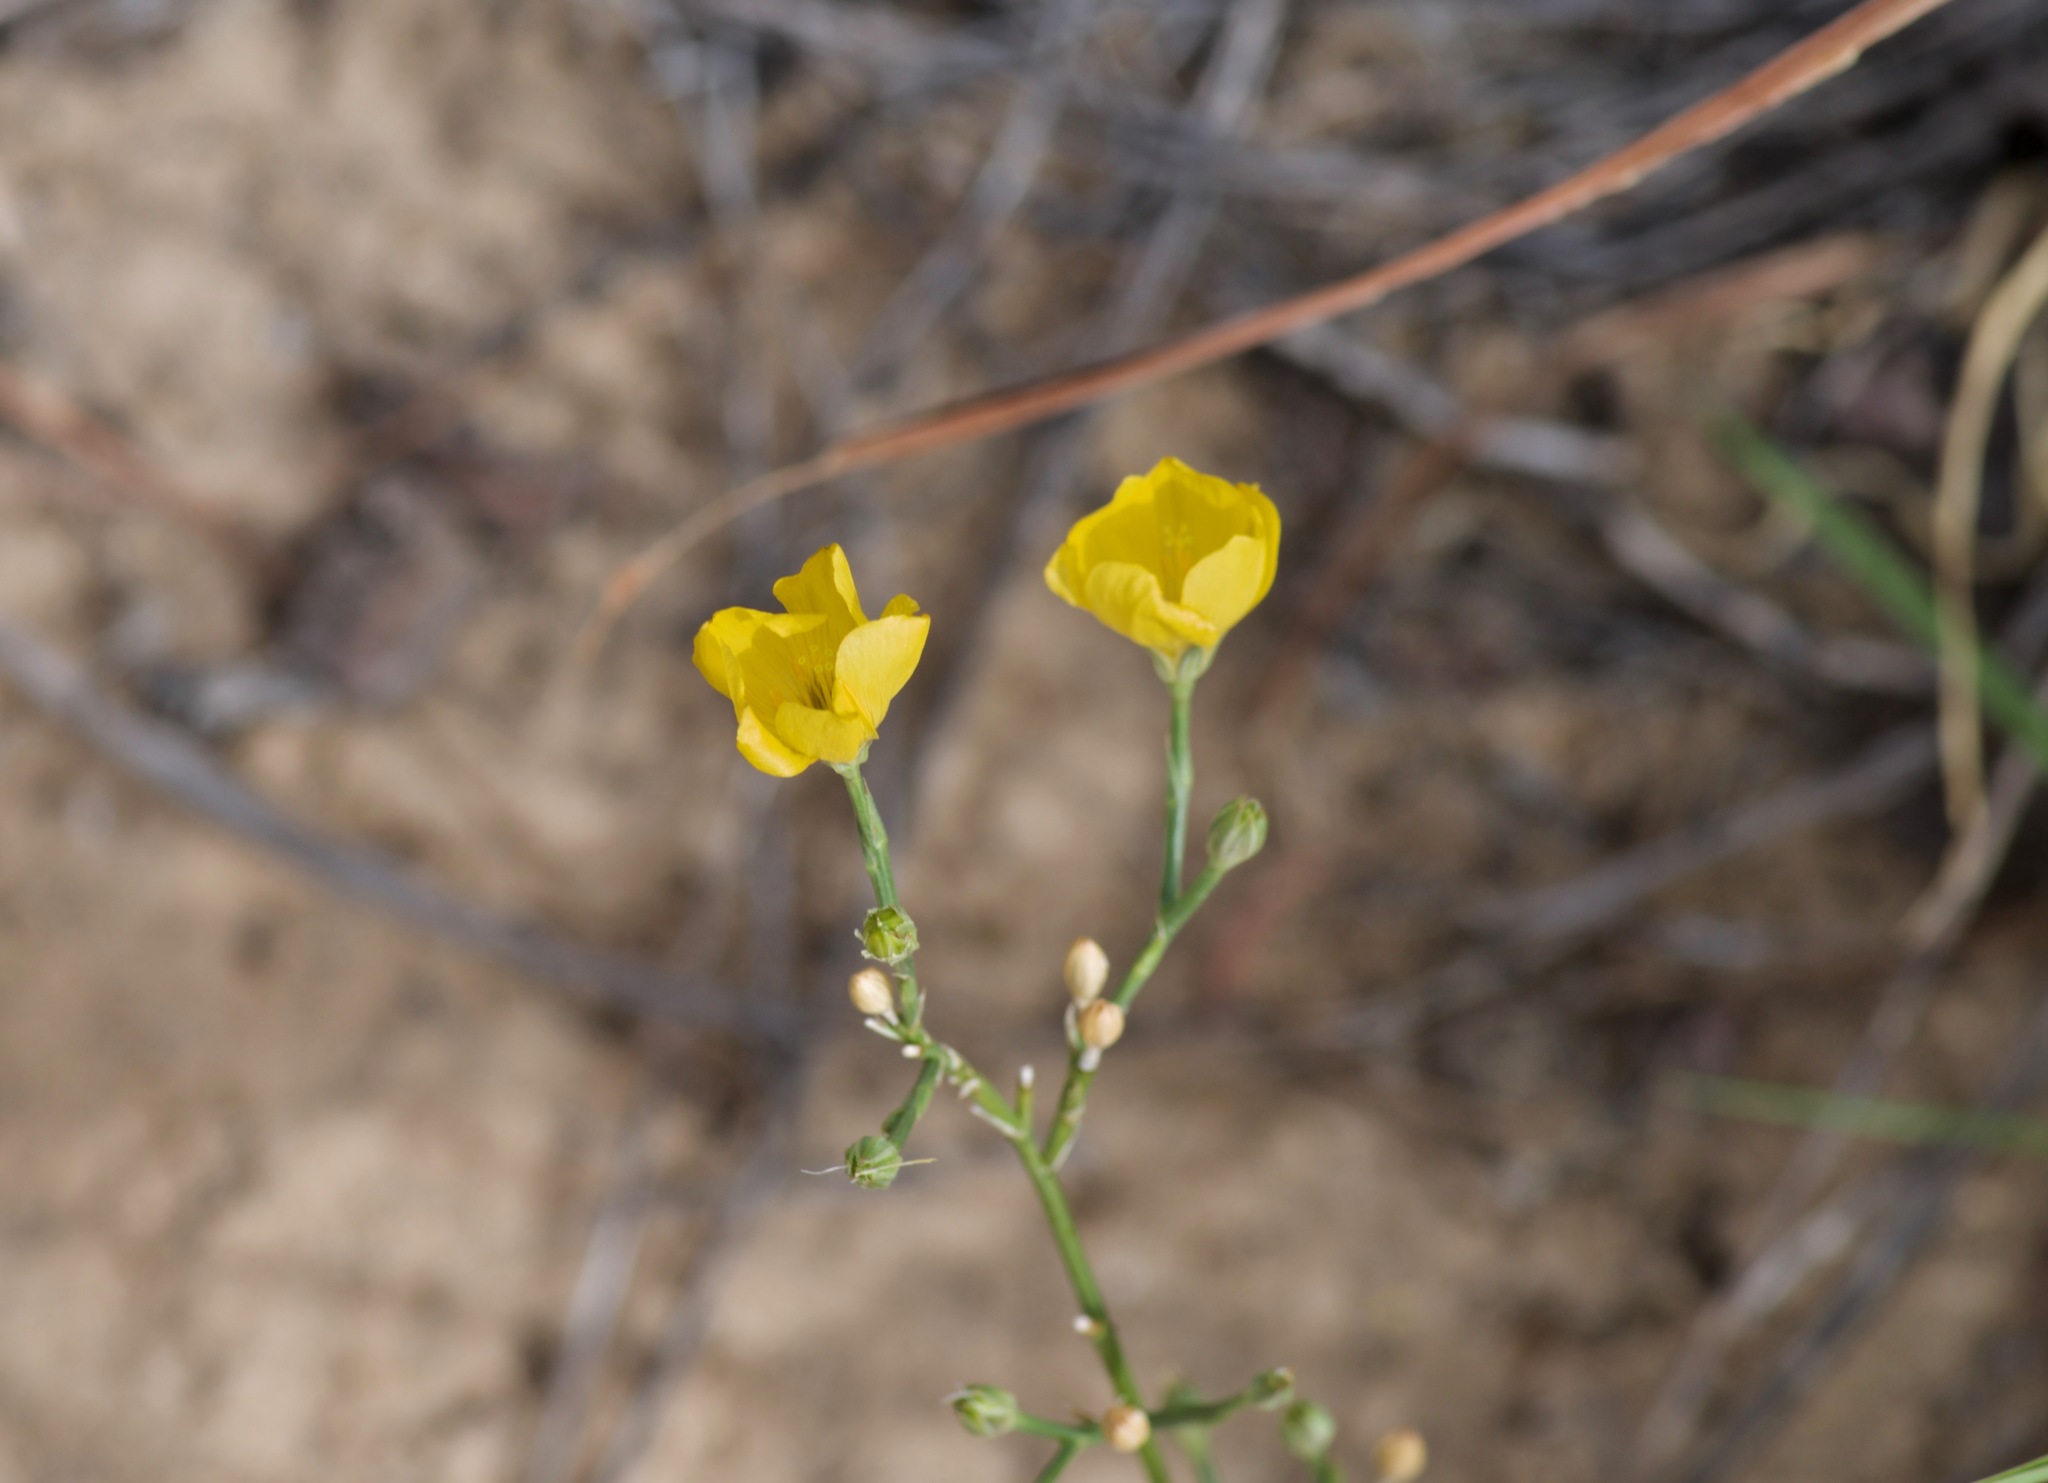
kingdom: Plantae
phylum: Tracheophyta
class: Magnoliopsida
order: Malpighiales
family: Linaceae
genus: Linum
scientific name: Linum berlandieri
